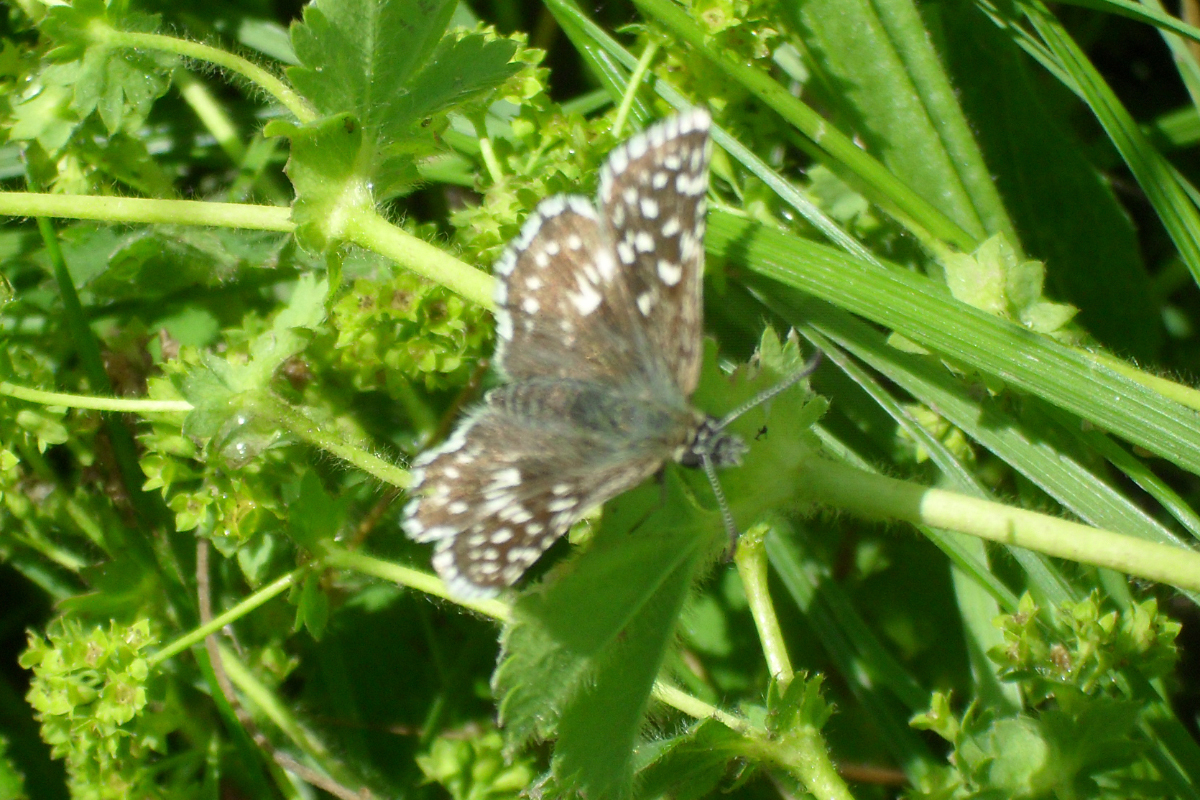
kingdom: Animalia
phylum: Arthropoda
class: Insecta
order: Lepidoptera
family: Hesperiidae
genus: Pyrgus
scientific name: Pyrgus malvae
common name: Grizzled skipper
